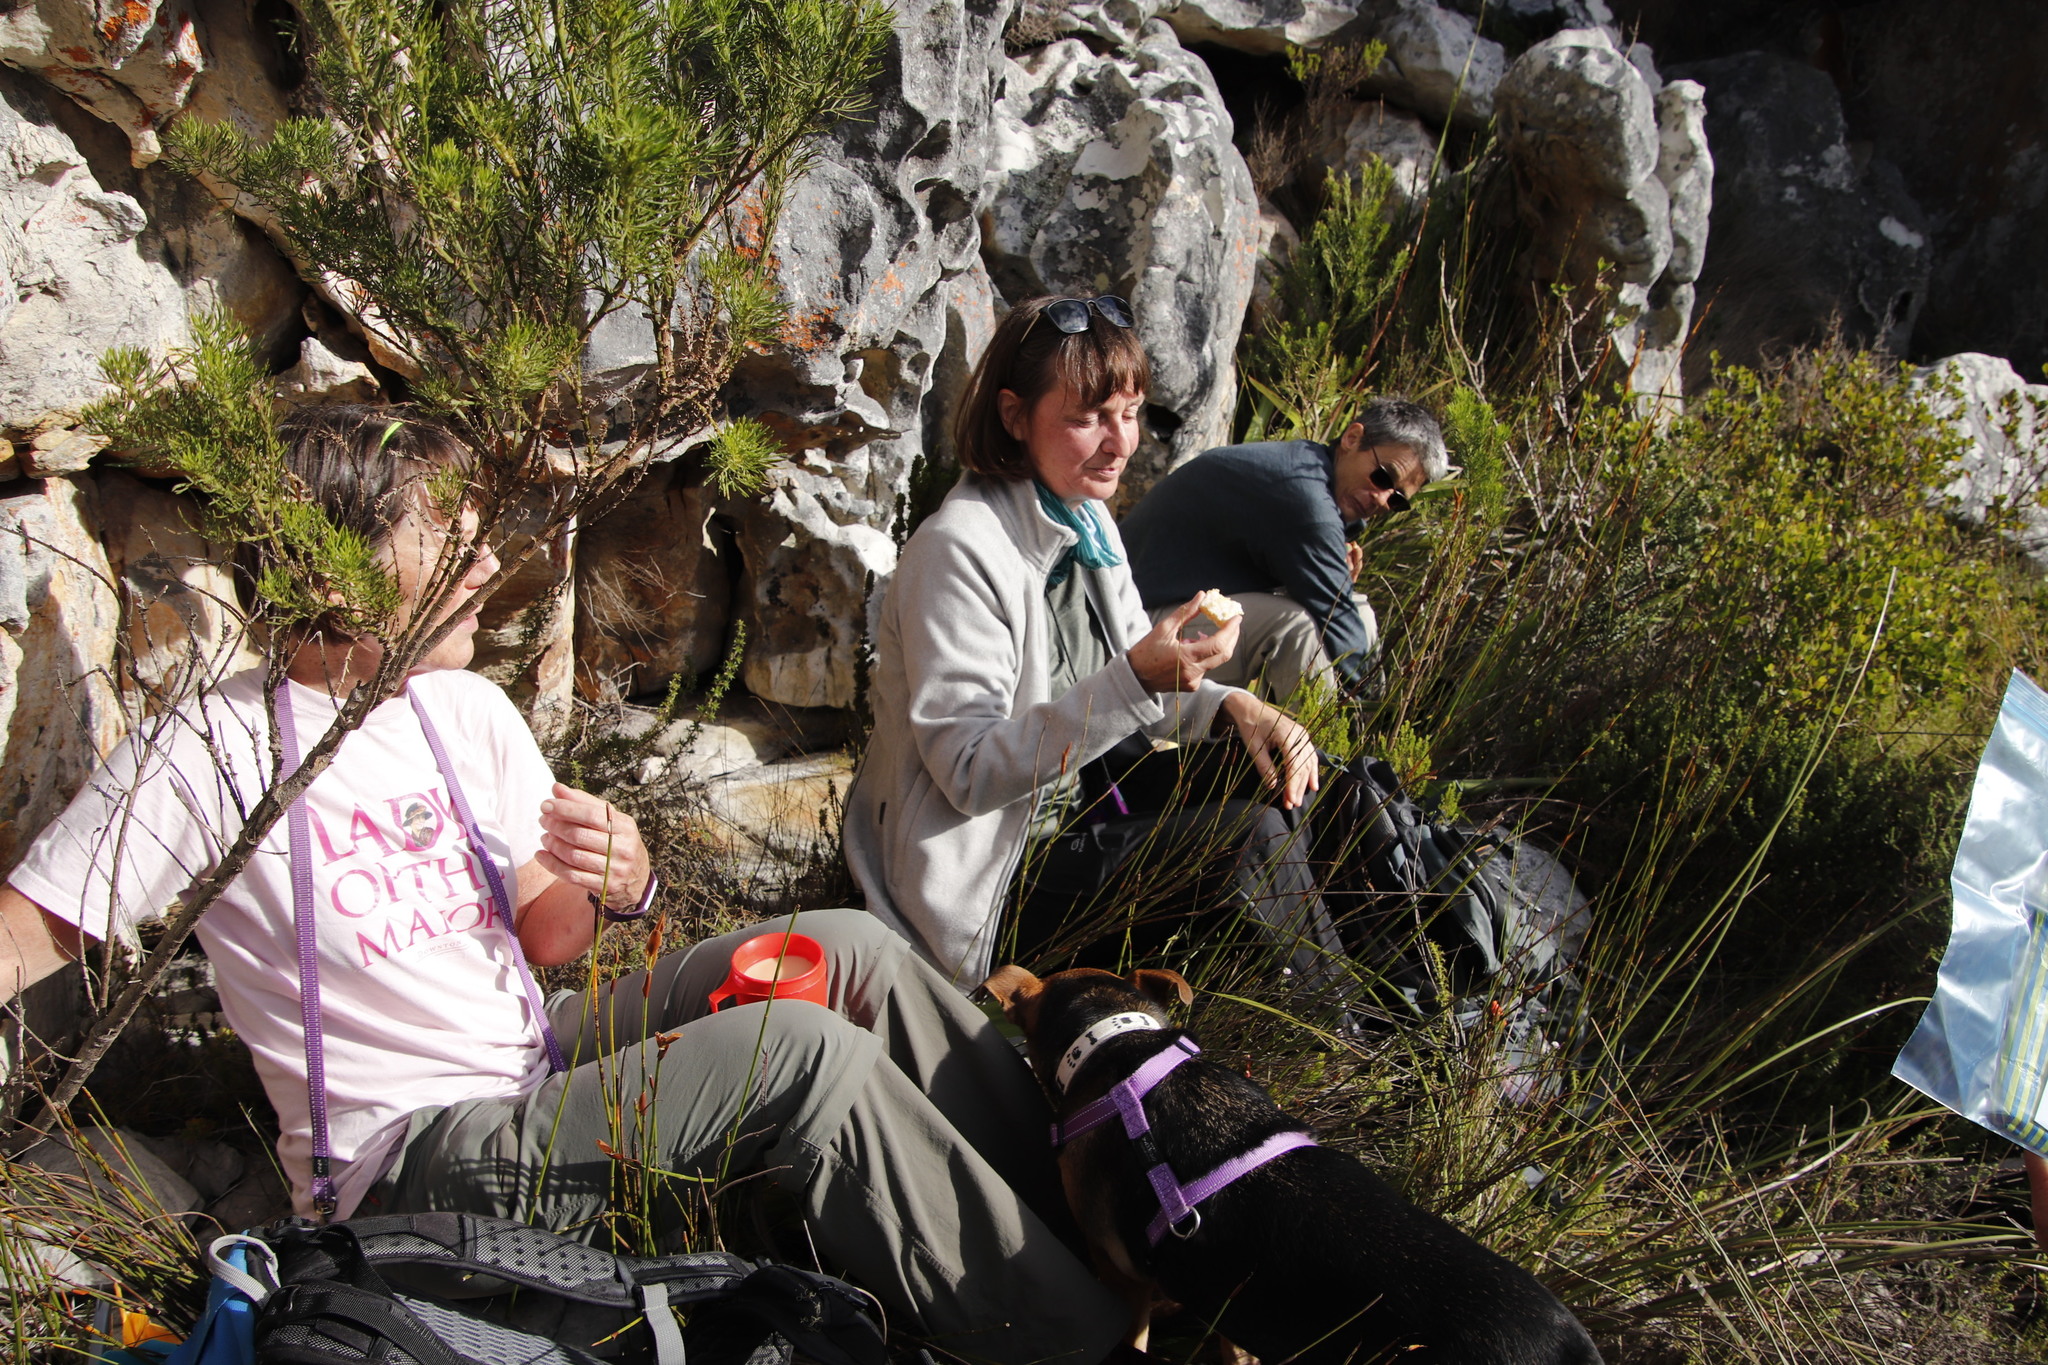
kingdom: Plantae
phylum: Tracheophyta
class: Magnoliopsida
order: Fabales
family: Fabaceae
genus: Psoralea
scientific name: Psoralea pinnata
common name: African scurfpea
